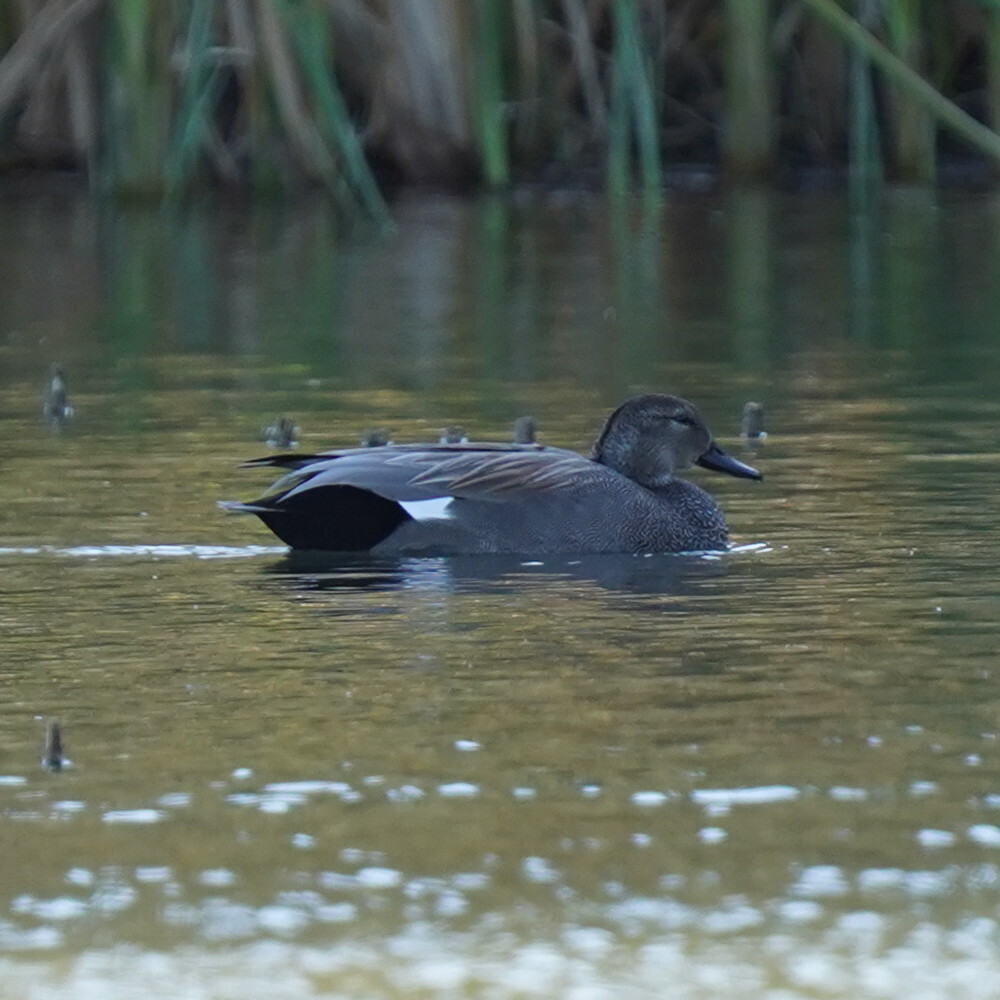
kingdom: Animalia
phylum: Chordata
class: Aves
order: Anseriformes
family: Anatidae
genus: Mareca
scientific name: Mareca strepera
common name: Gadwall
